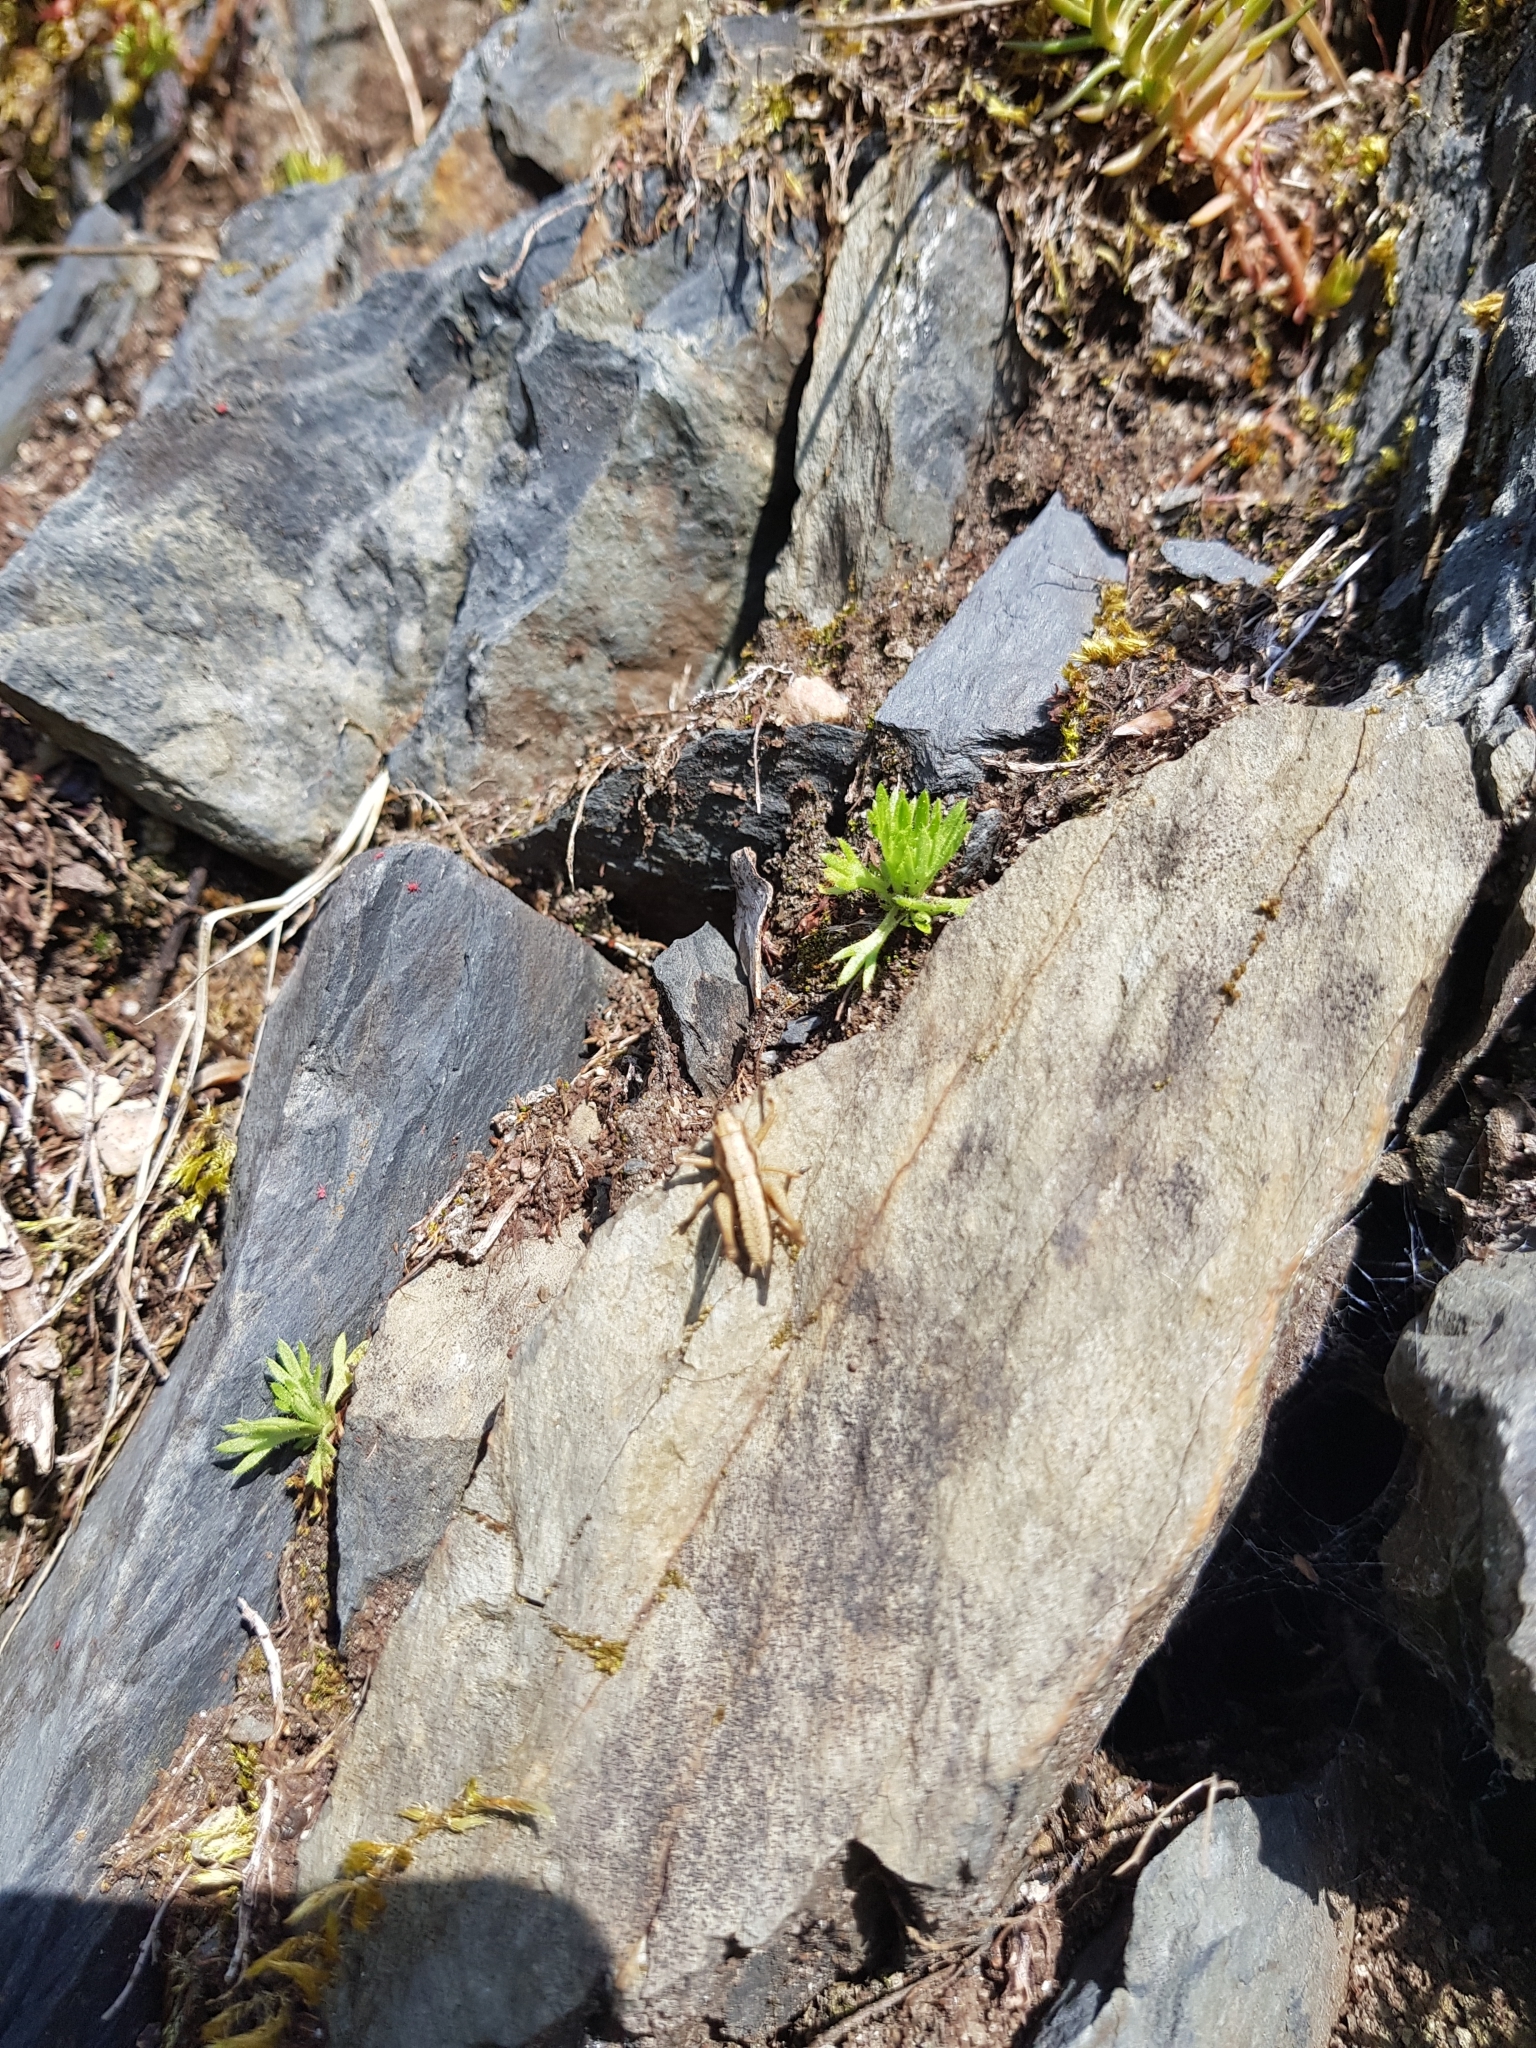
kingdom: Animalia
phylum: Arthropoda
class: Insecta
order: Orthoptera
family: Tettigoniidae
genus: Pholidoptera
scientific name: Pholidoptera griseoaptera
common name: Dark bush-cricket
